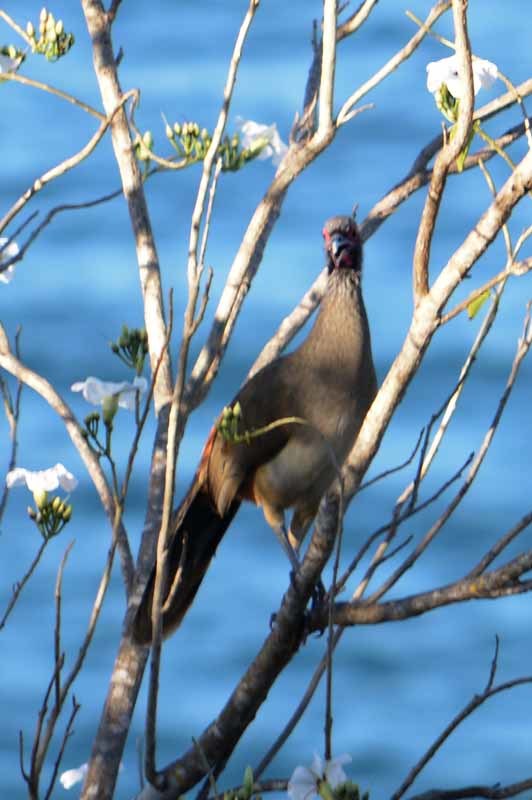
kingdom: Animalia
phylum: Chordata
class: Aves
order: Galliformes
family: Cracidae
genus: Ortalis
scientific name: Ortalis poliocephala
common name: West mexican chachalaca
